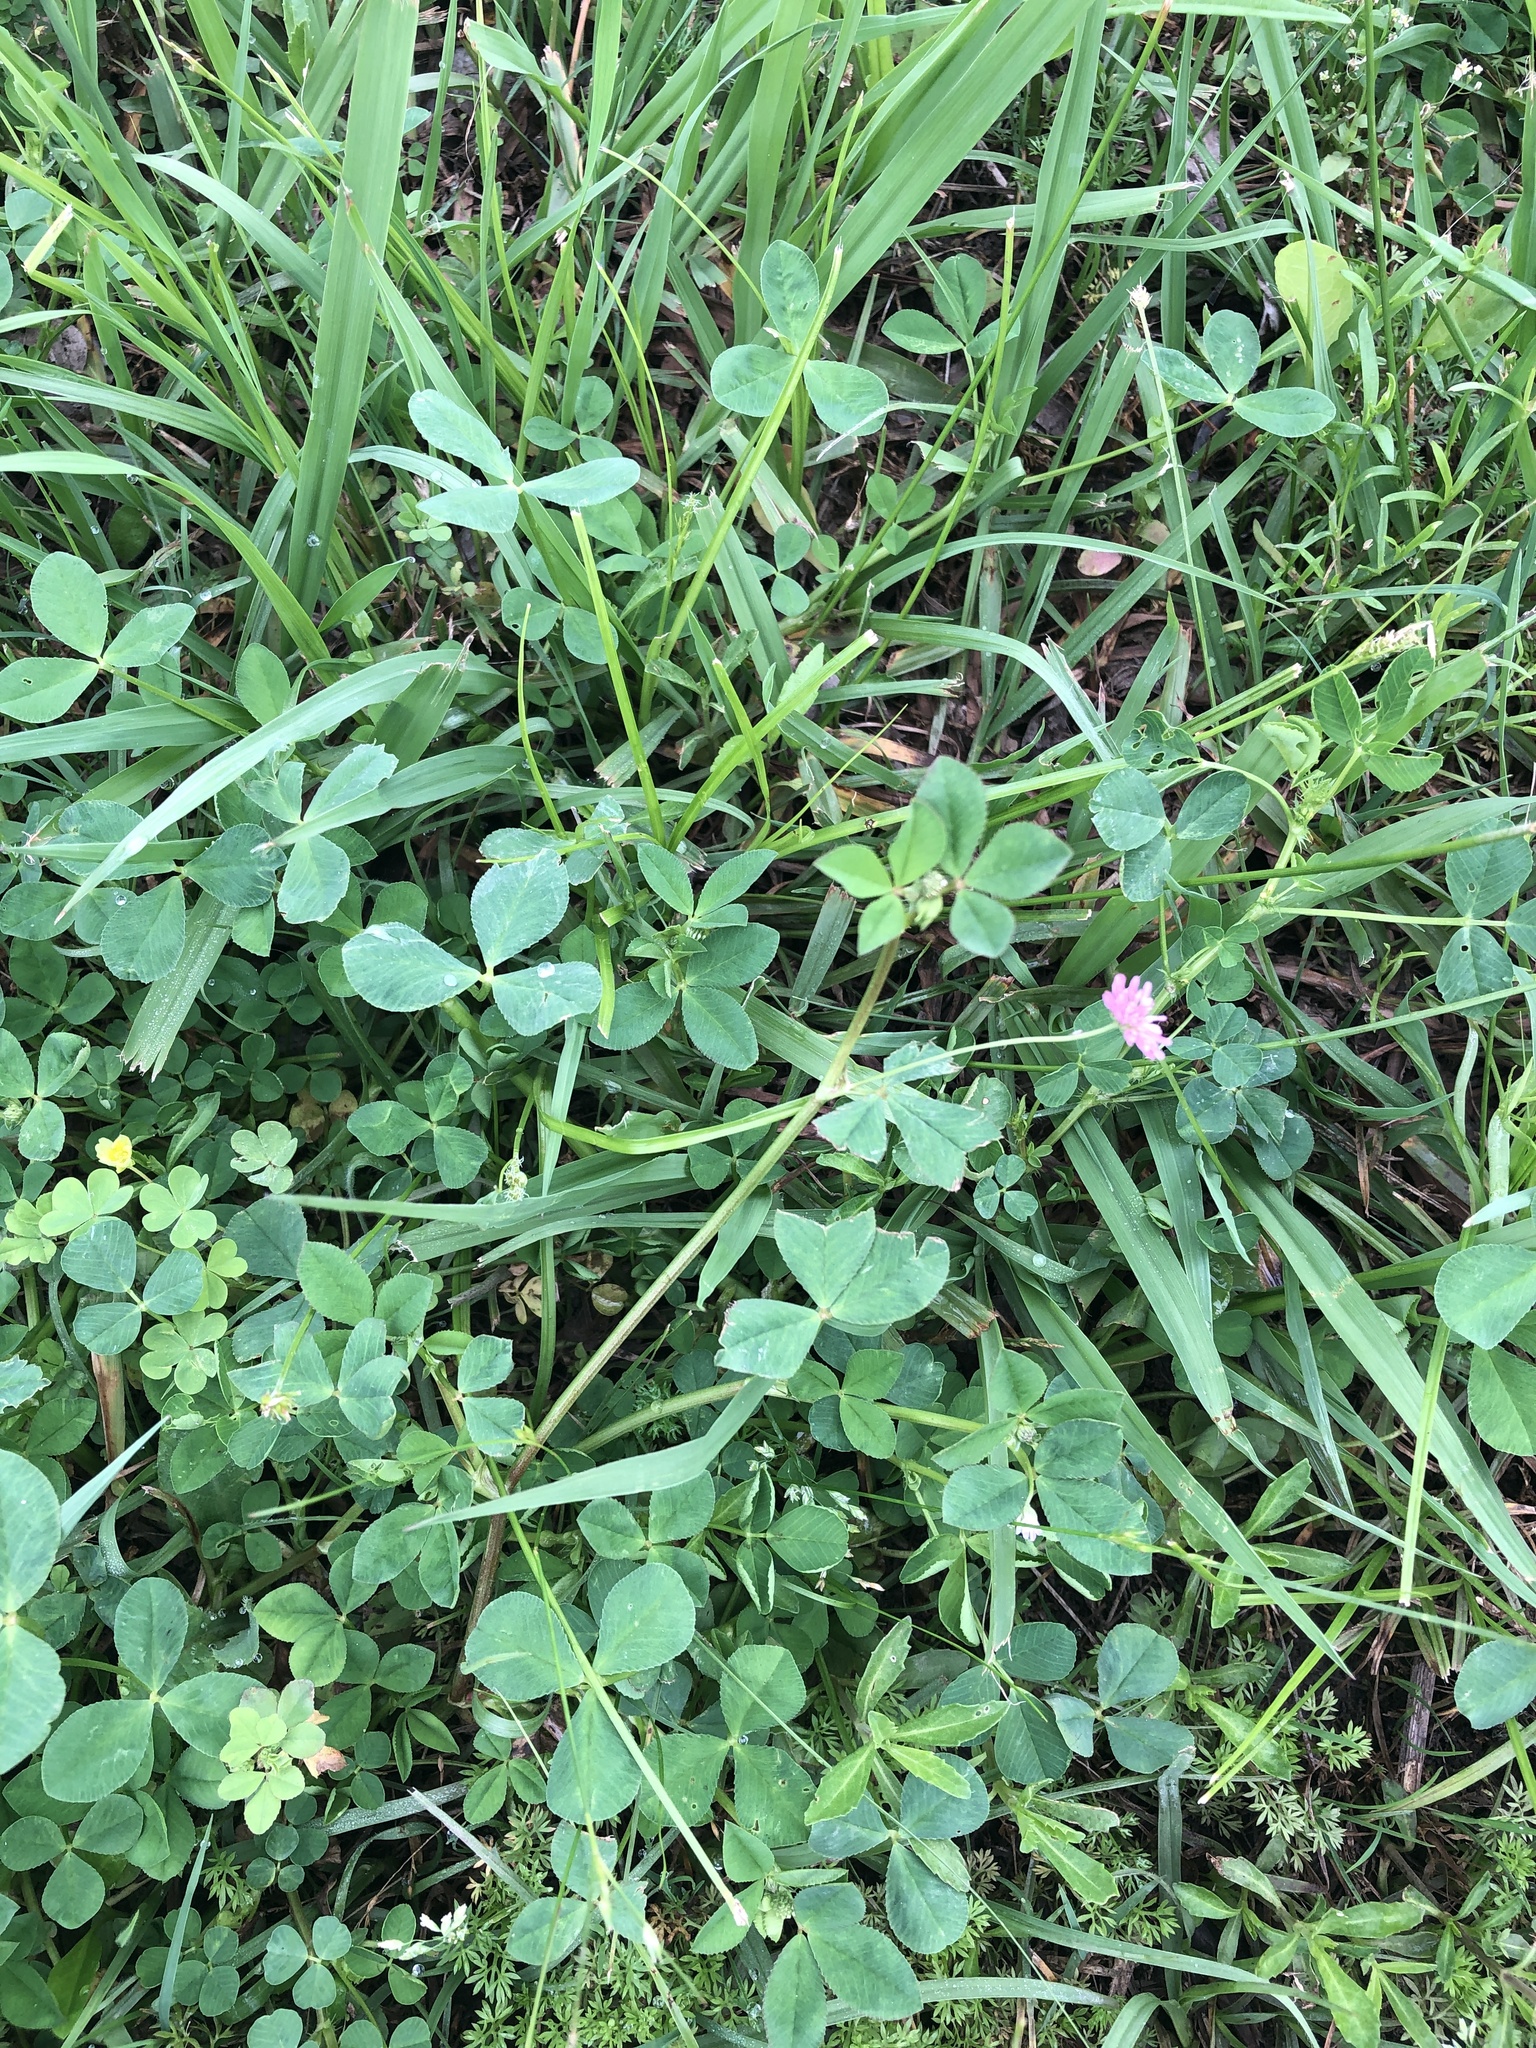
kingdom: Plantae
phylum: Tracheophyta
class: Magnoliopsida
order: Fabales
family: Fabaceae
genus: Trifolium
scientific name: Trifolium resupinatum
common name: Reversed clover
